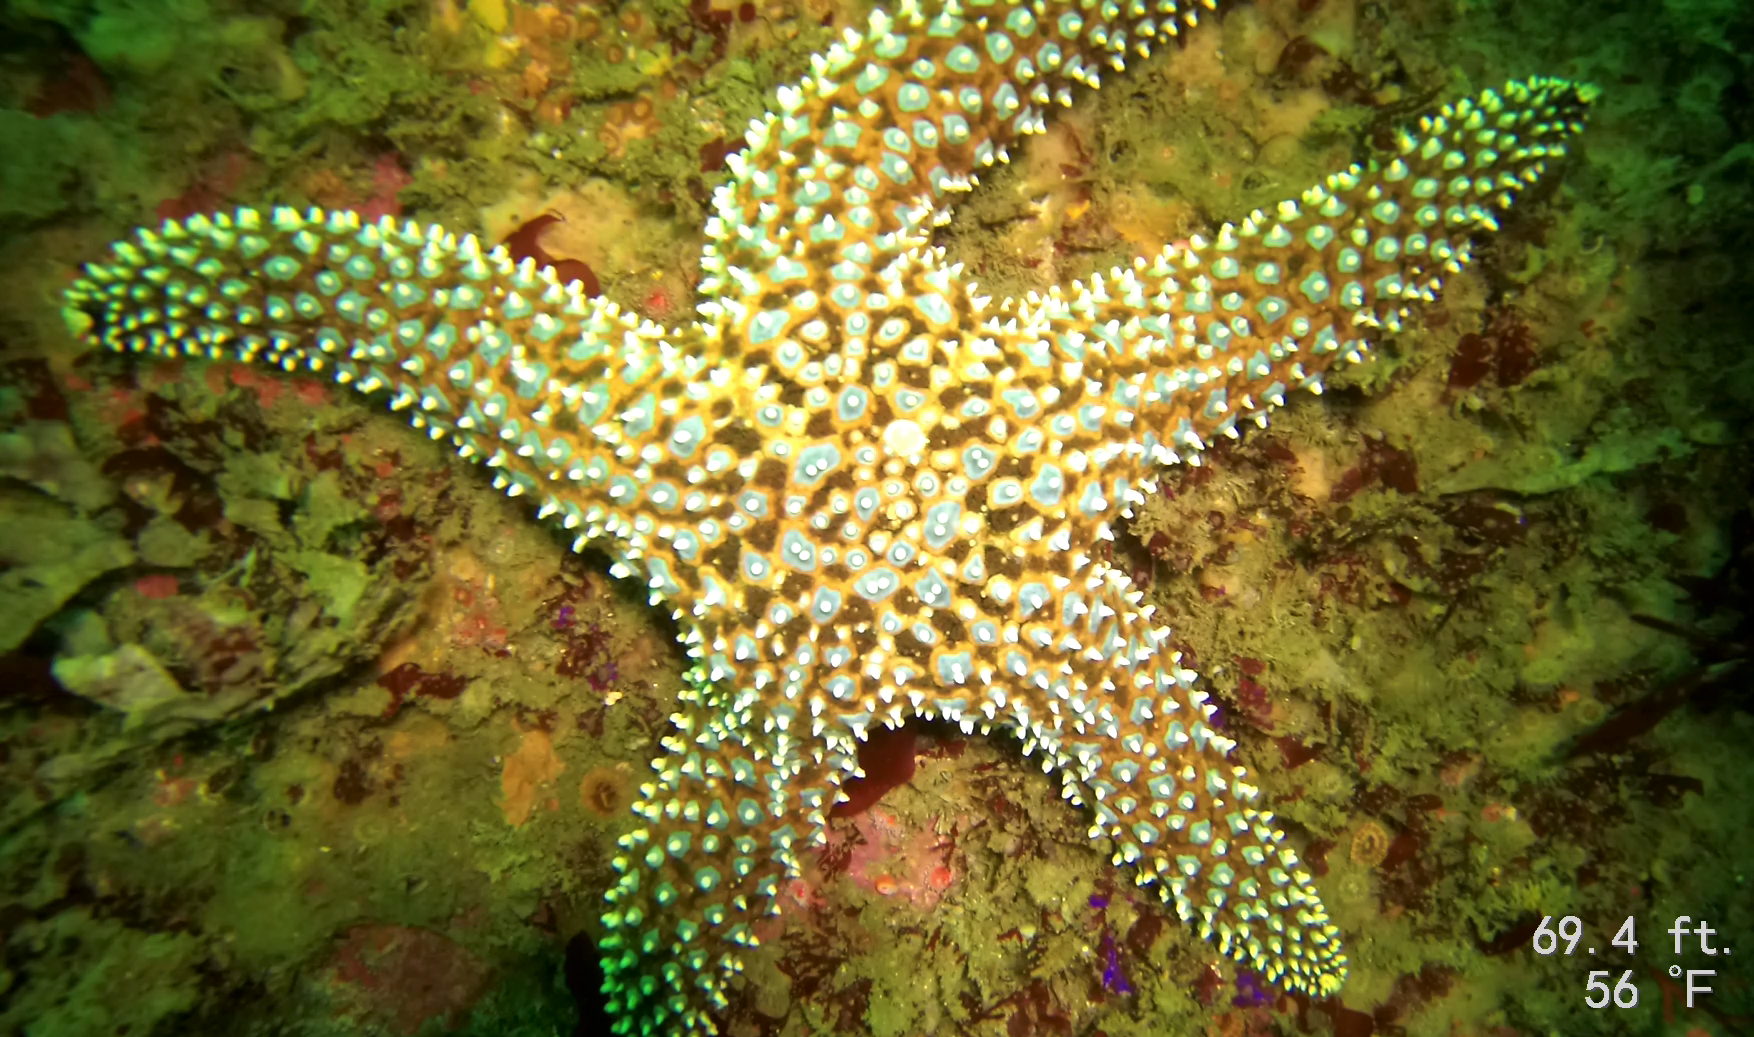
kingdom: Animalia
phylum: Echinodermata
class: Asteroidea
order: Forcipulatida
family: Asteriidae
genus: Pisaster
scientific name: Pisaster giganteus
